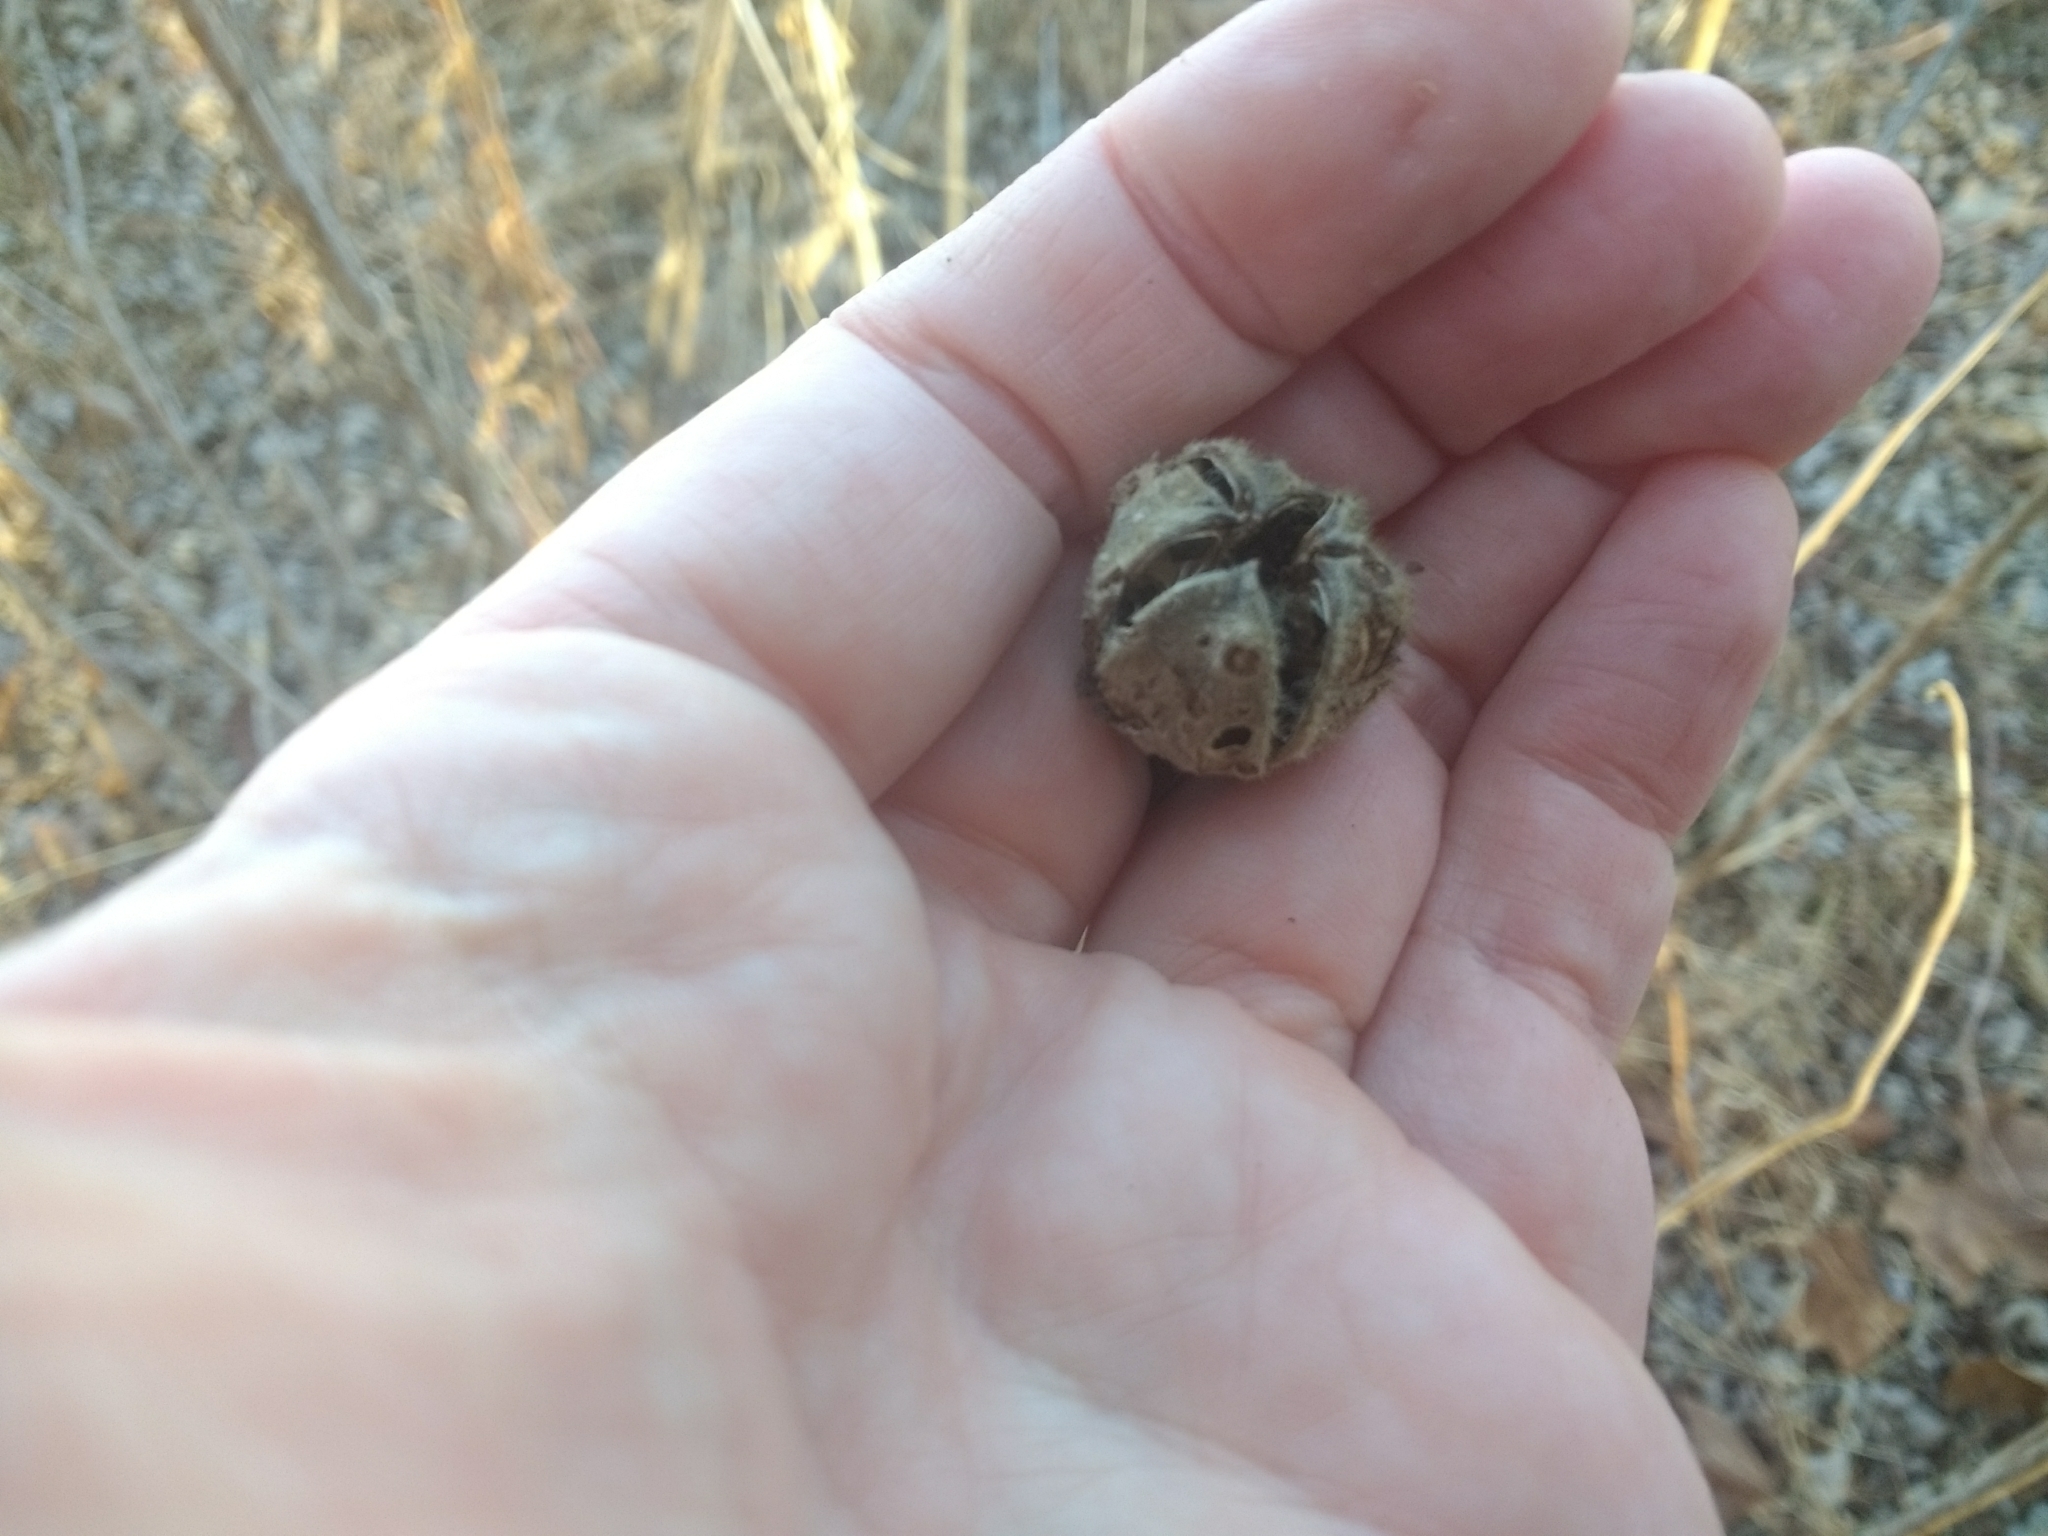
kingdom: Plantae
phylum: Tracheophyta
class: Magnoliopsida
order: Malvales
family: Malvaceae
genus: Hibiscus
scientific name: Hibiscus moscheutos
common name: Common rose-mallow
